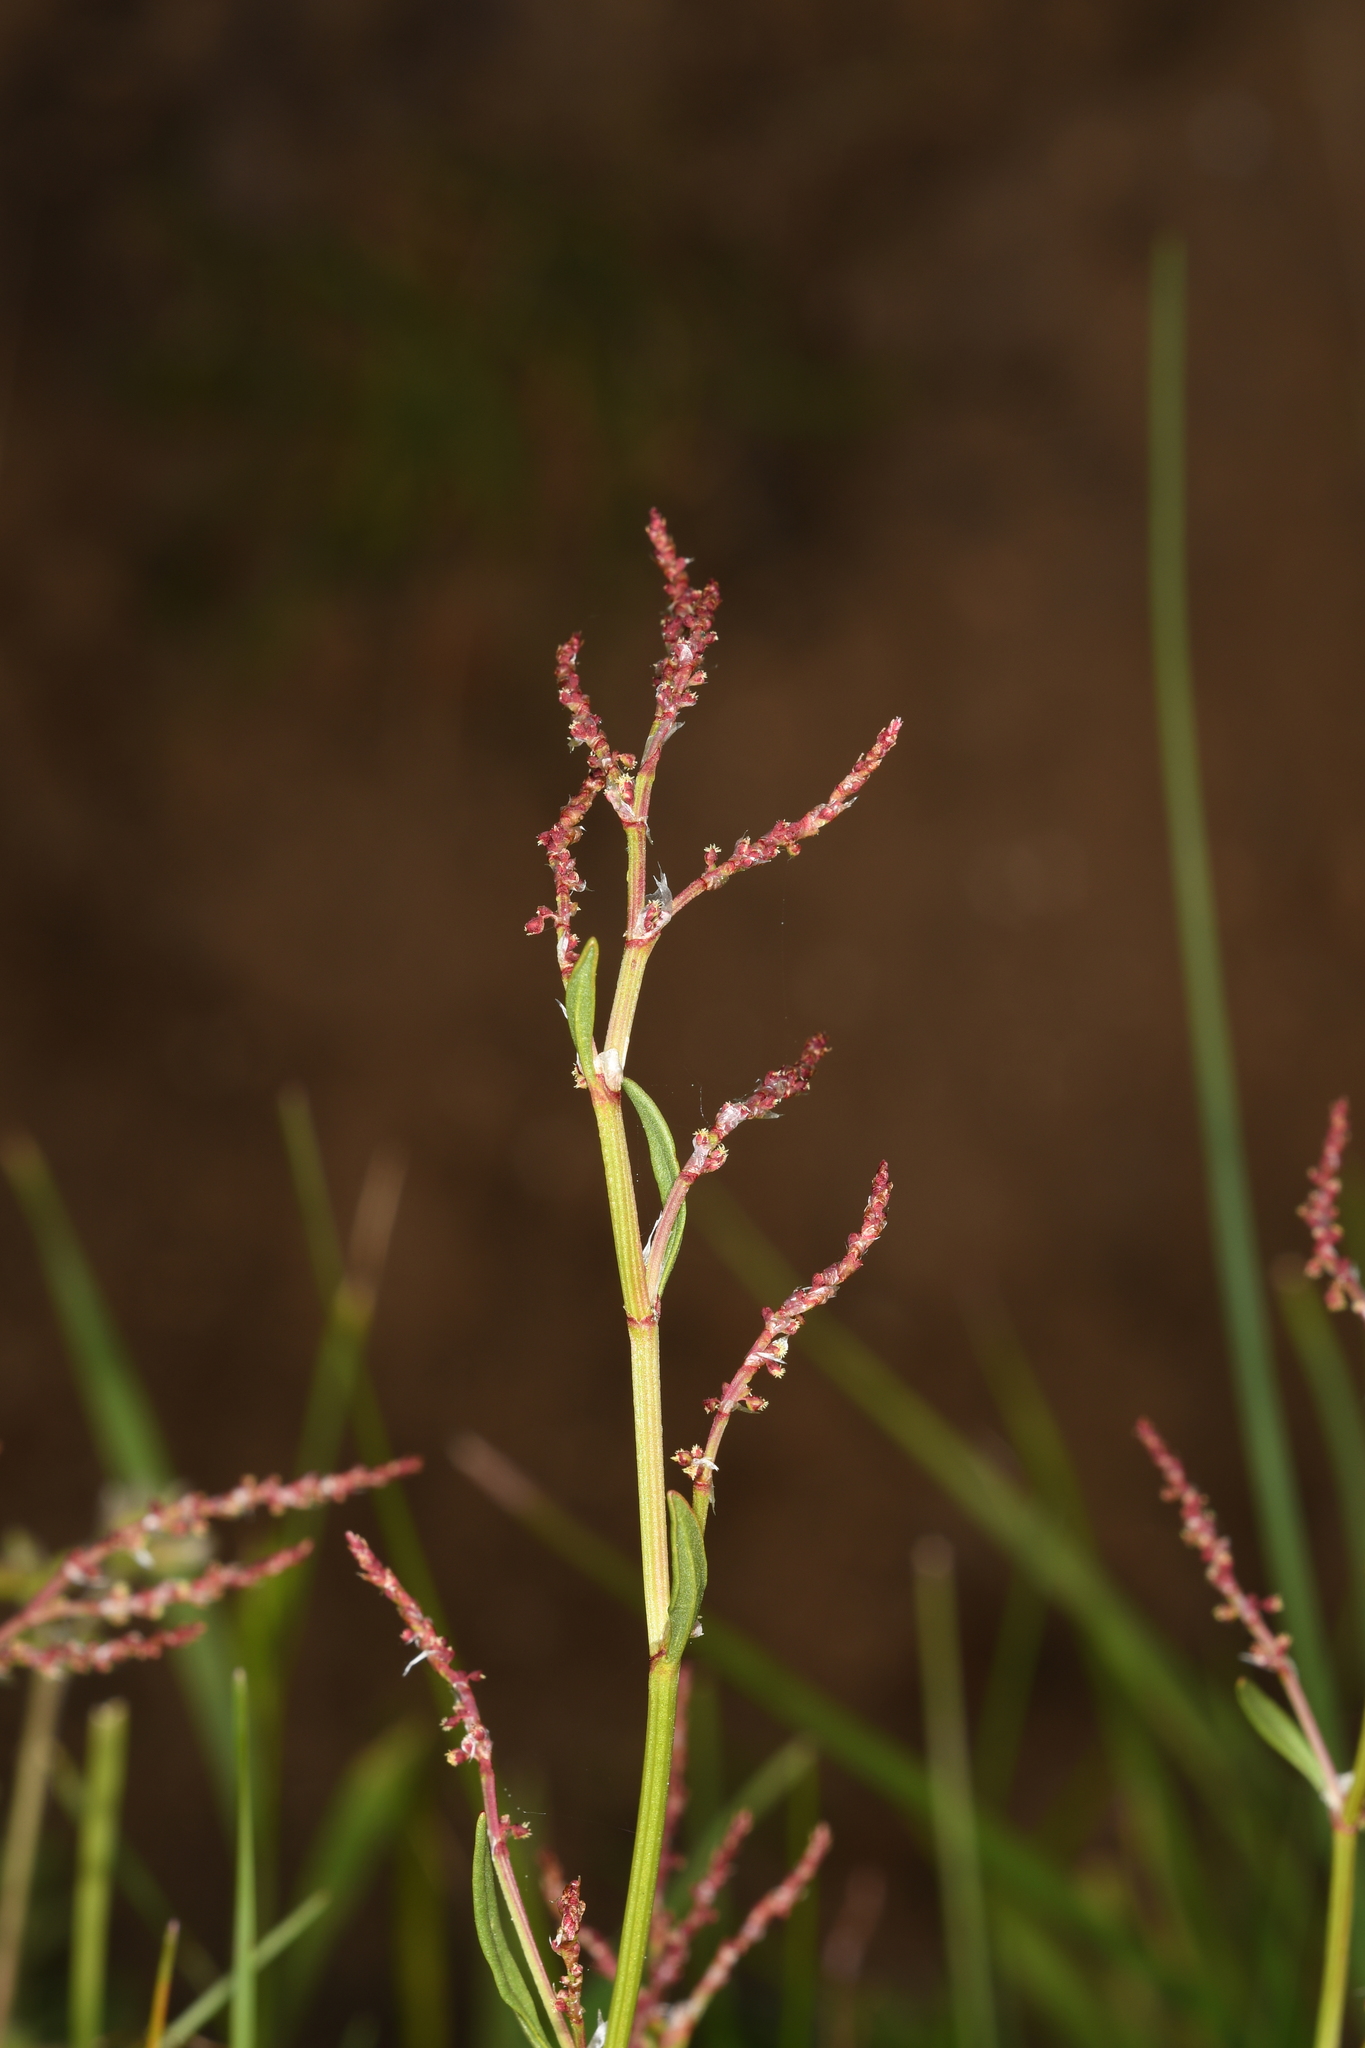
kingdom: Plantae
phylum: Tracheophyta
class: Magnoliopsida
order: Caryophyllales
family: Polygonaceae
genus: Rumex
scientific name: Rumex acetosella
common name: Common sheep sorrel
